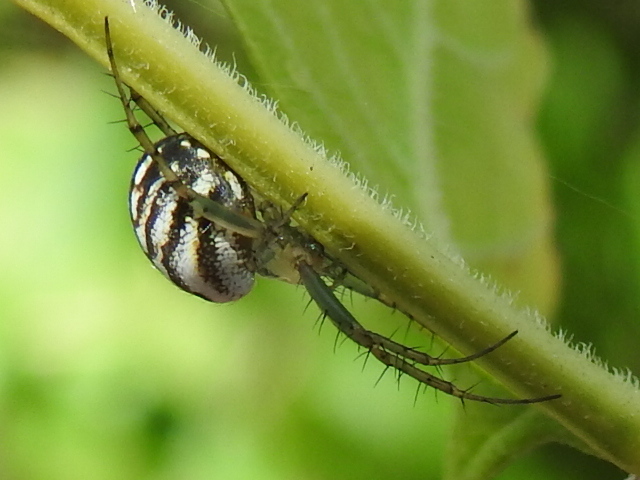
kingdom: Animalia
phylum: Arthropoda
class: Arachnida
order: Araneae
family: Araneidae
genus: Mangora
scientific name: Mangora gibberosa
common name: Lined orbweaver
